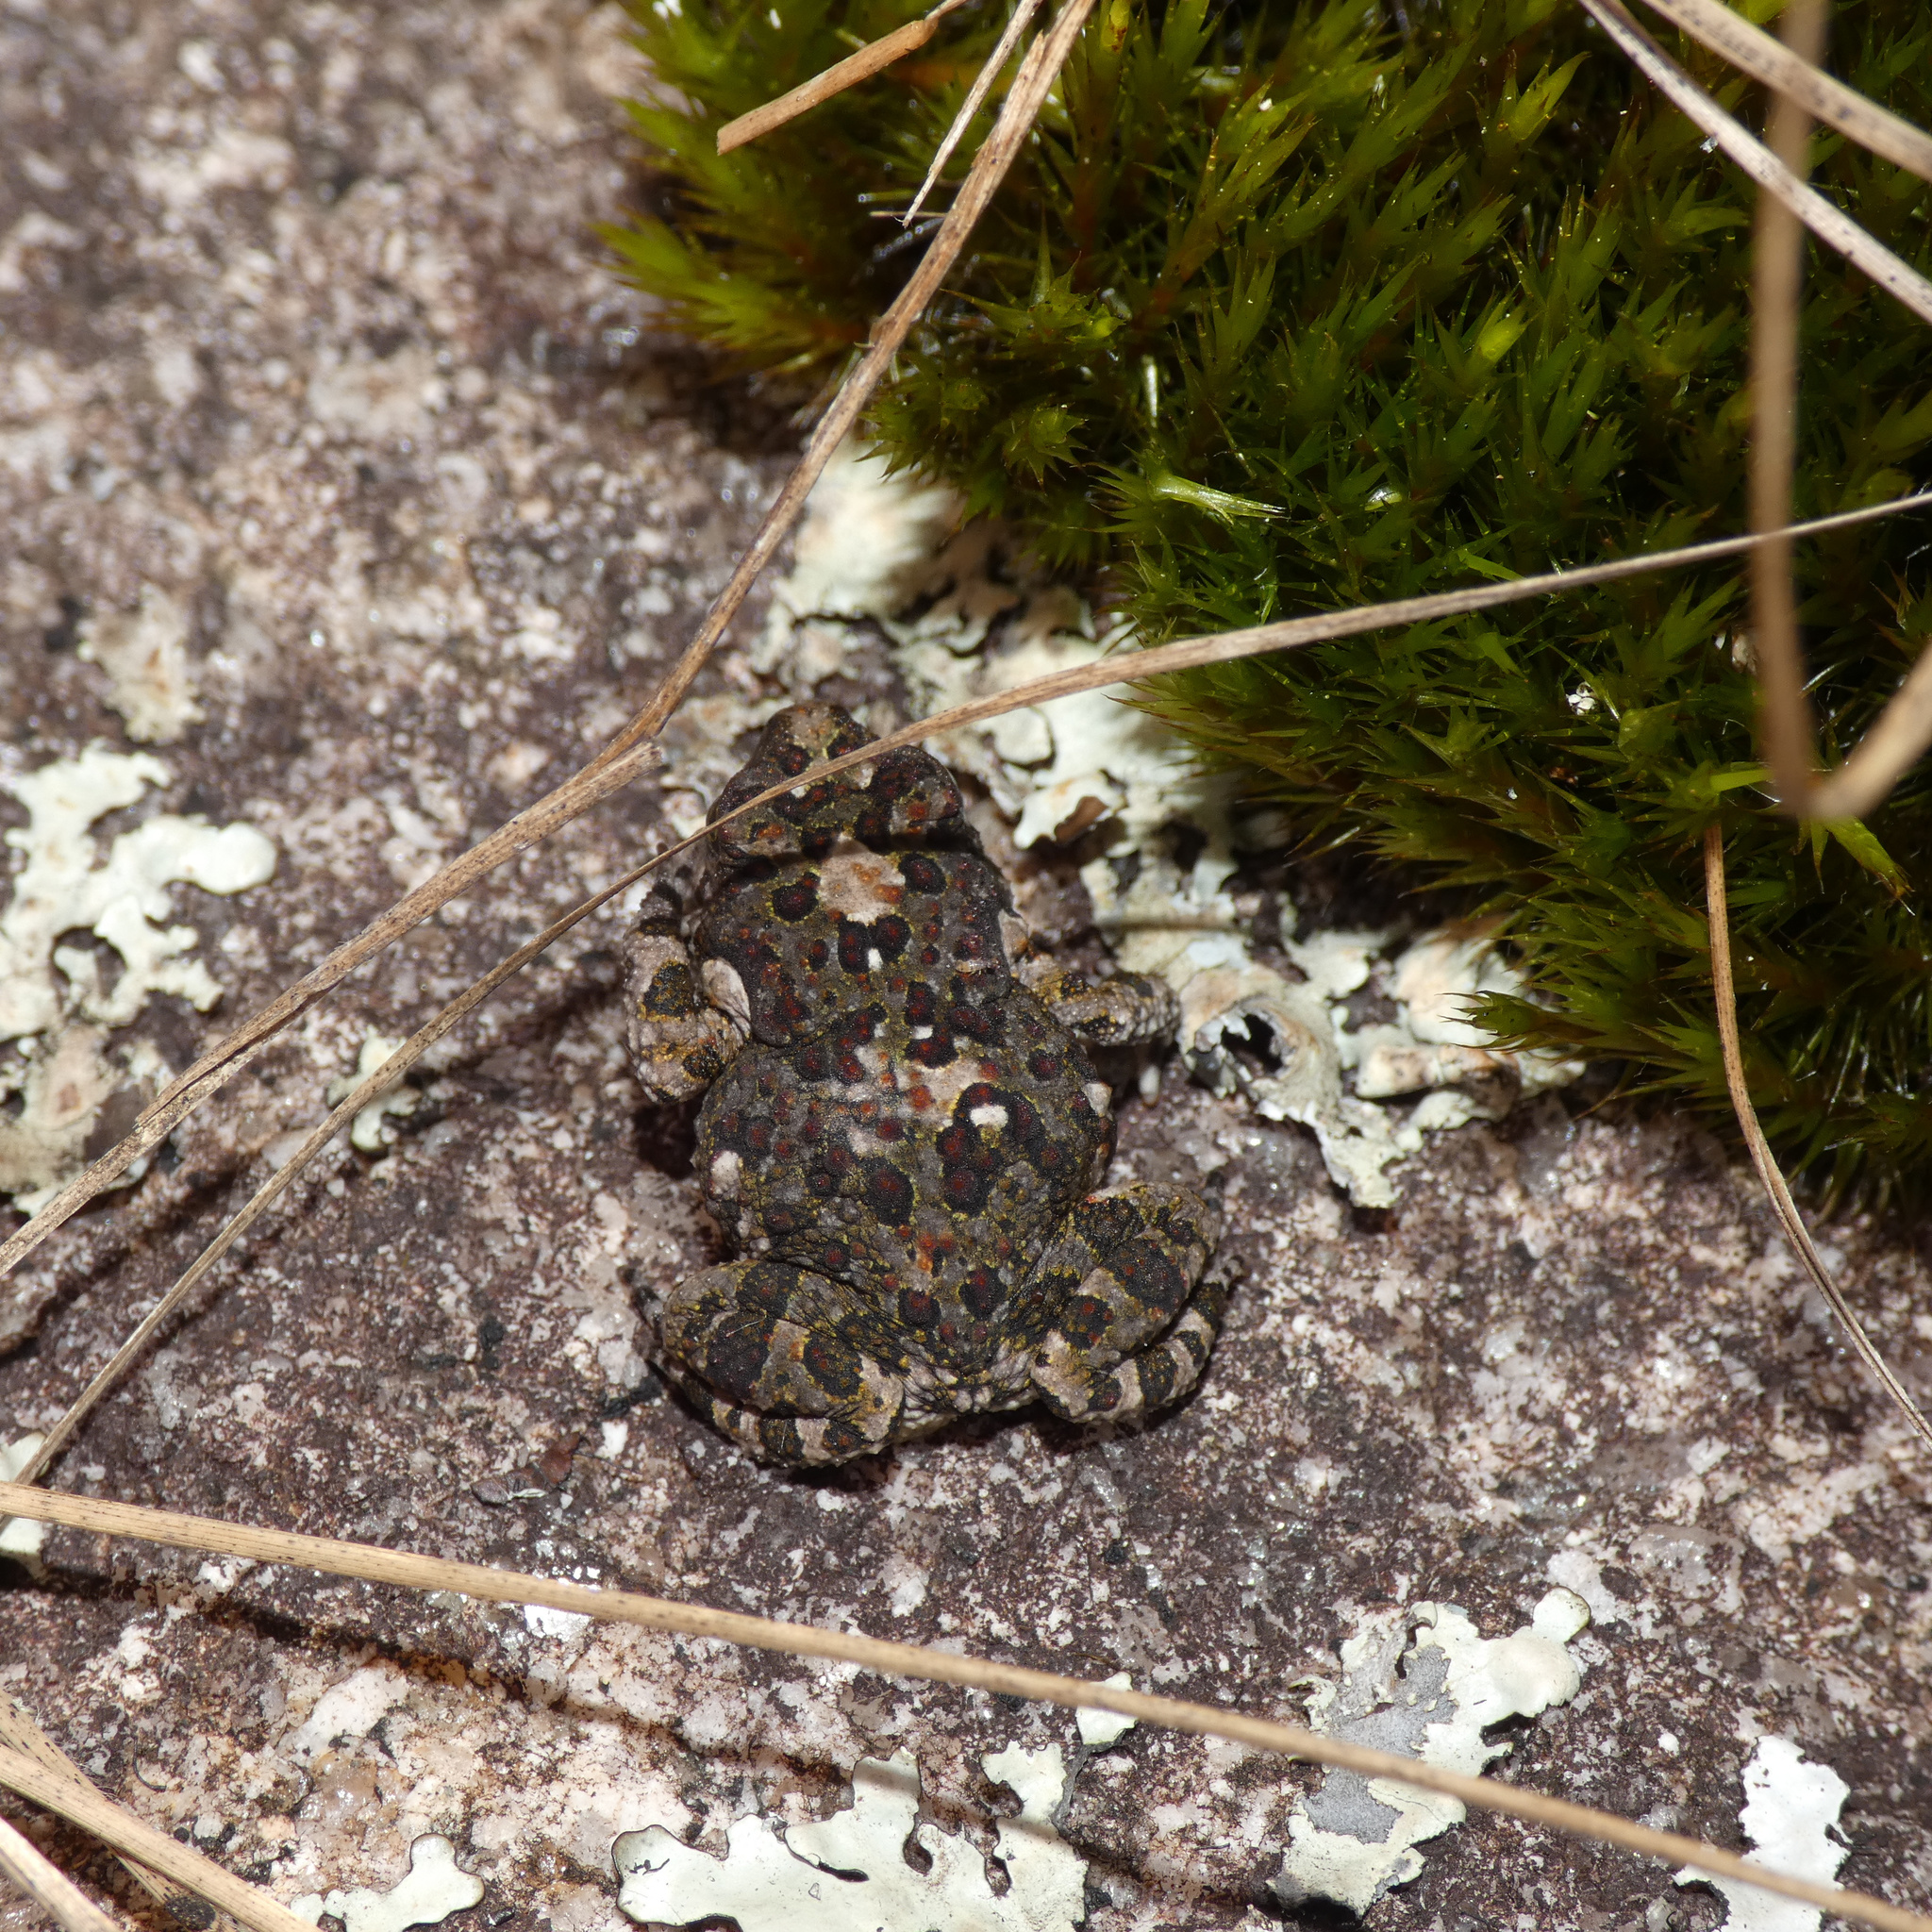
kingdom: Animalia
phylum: Chordata
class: Amphibia
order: Anura
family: Bufonidae
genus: Poyntonophrynus
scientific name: Poyntonophrynus fenoulheti
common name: Fenoulhet's toad
